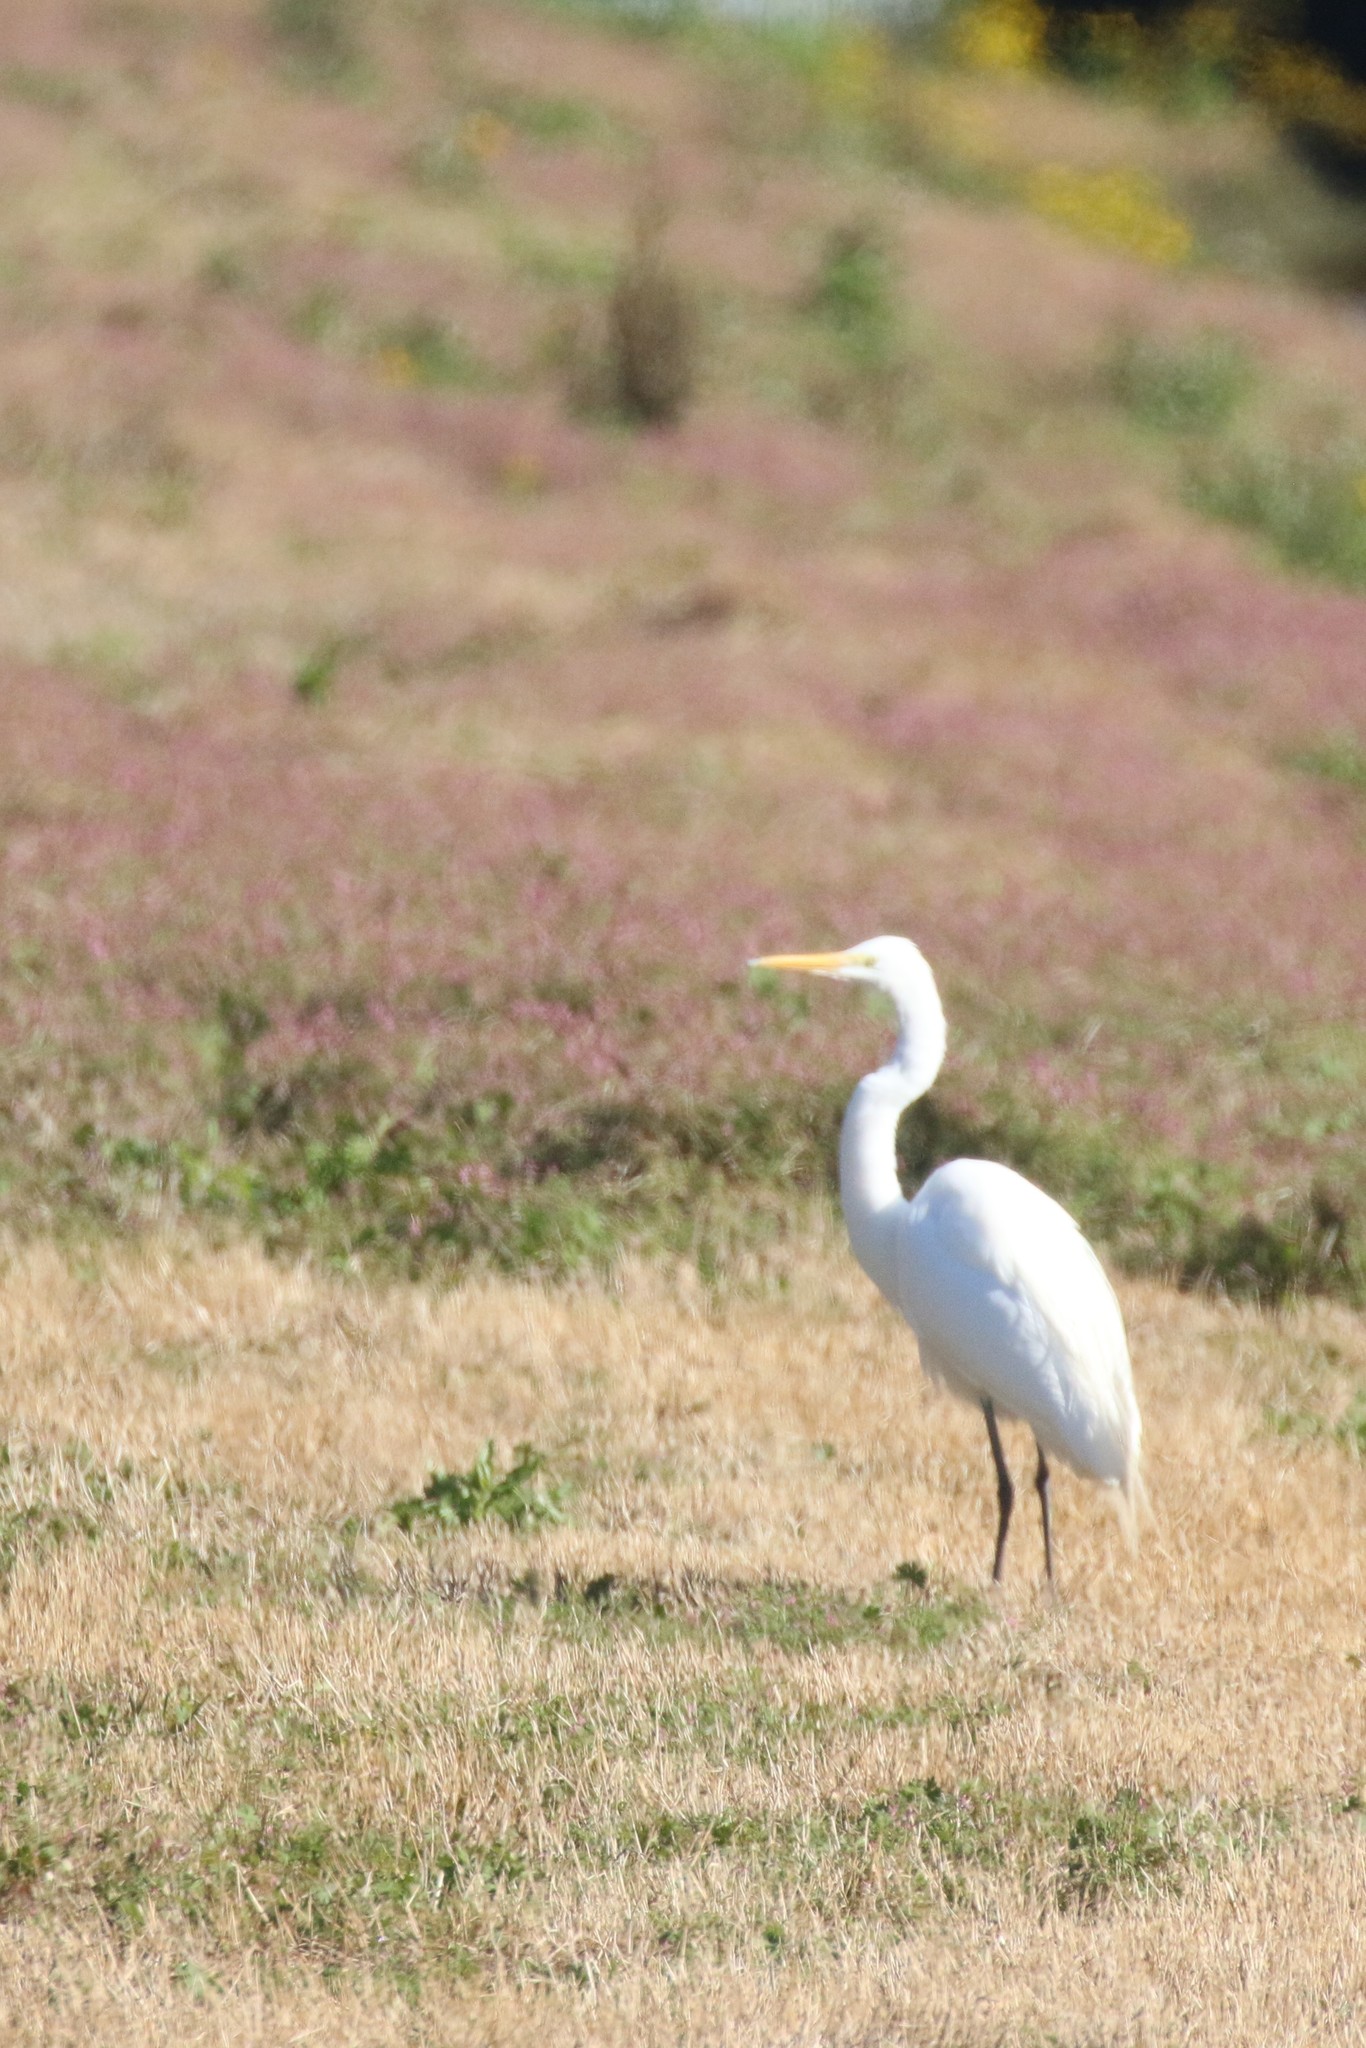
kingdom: Animalia
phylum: Chordata
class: Aves
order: Pelecaniformes
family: Ardeidae
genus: Ardea
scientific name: Ardea alba
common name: Great egret
